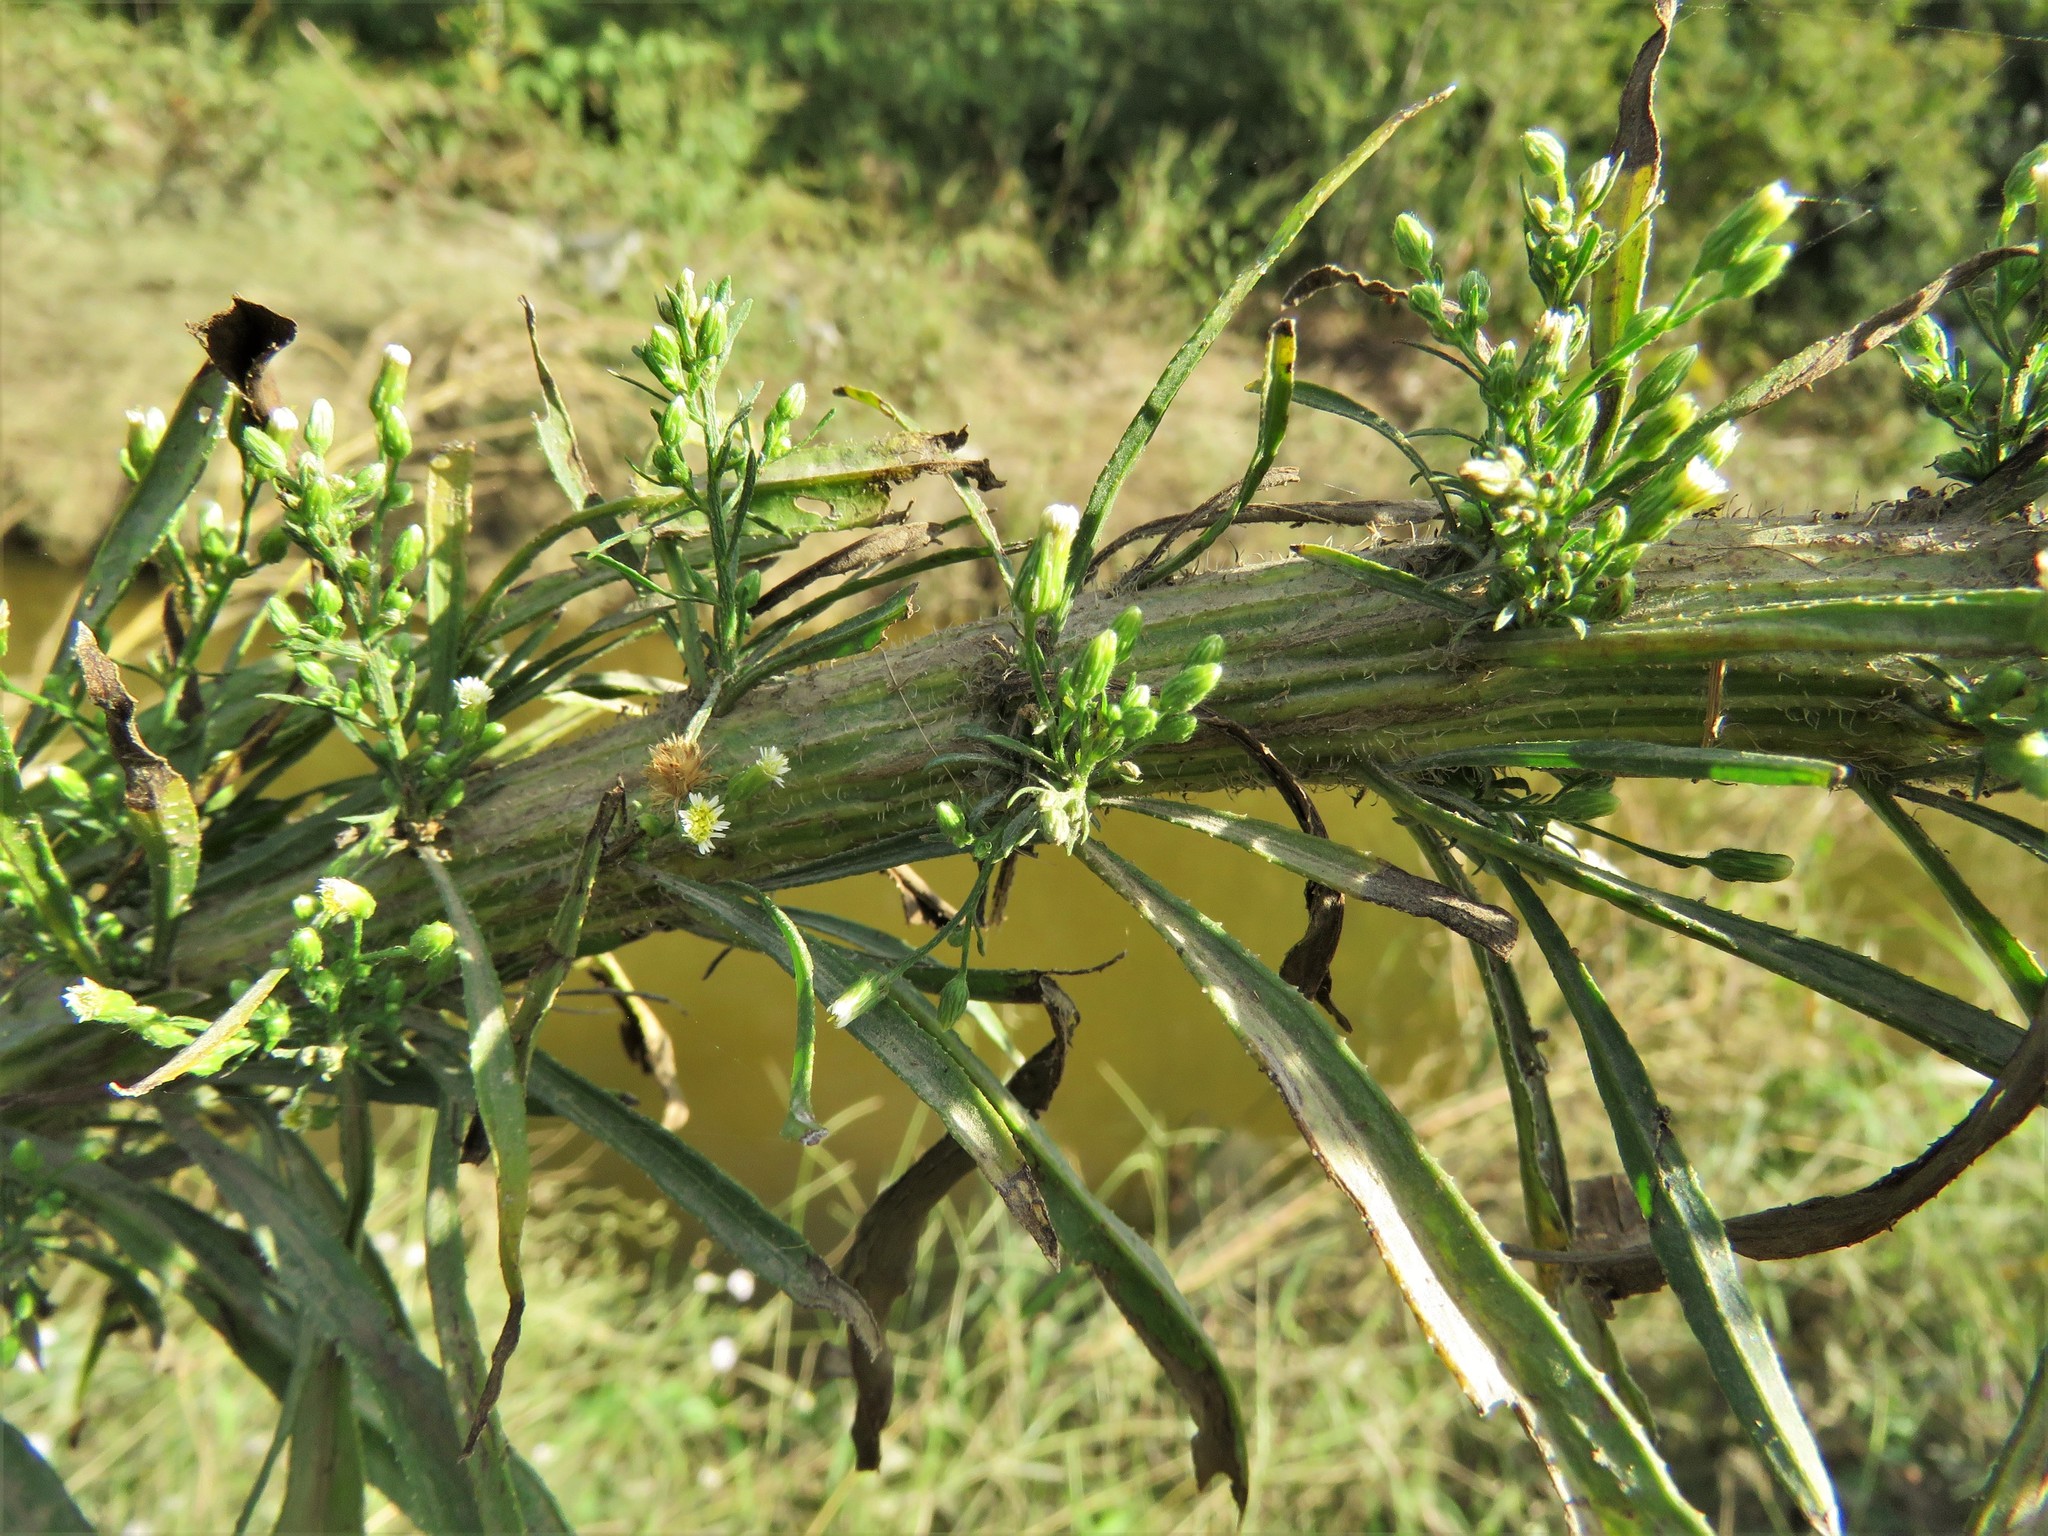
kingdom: Plantae
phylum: Tracheophyta
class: Magnoliopsida
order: Asterales
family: Asteraceae
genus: Erigeron
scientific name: Erigeron canadensis
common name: Canadian fleabane
